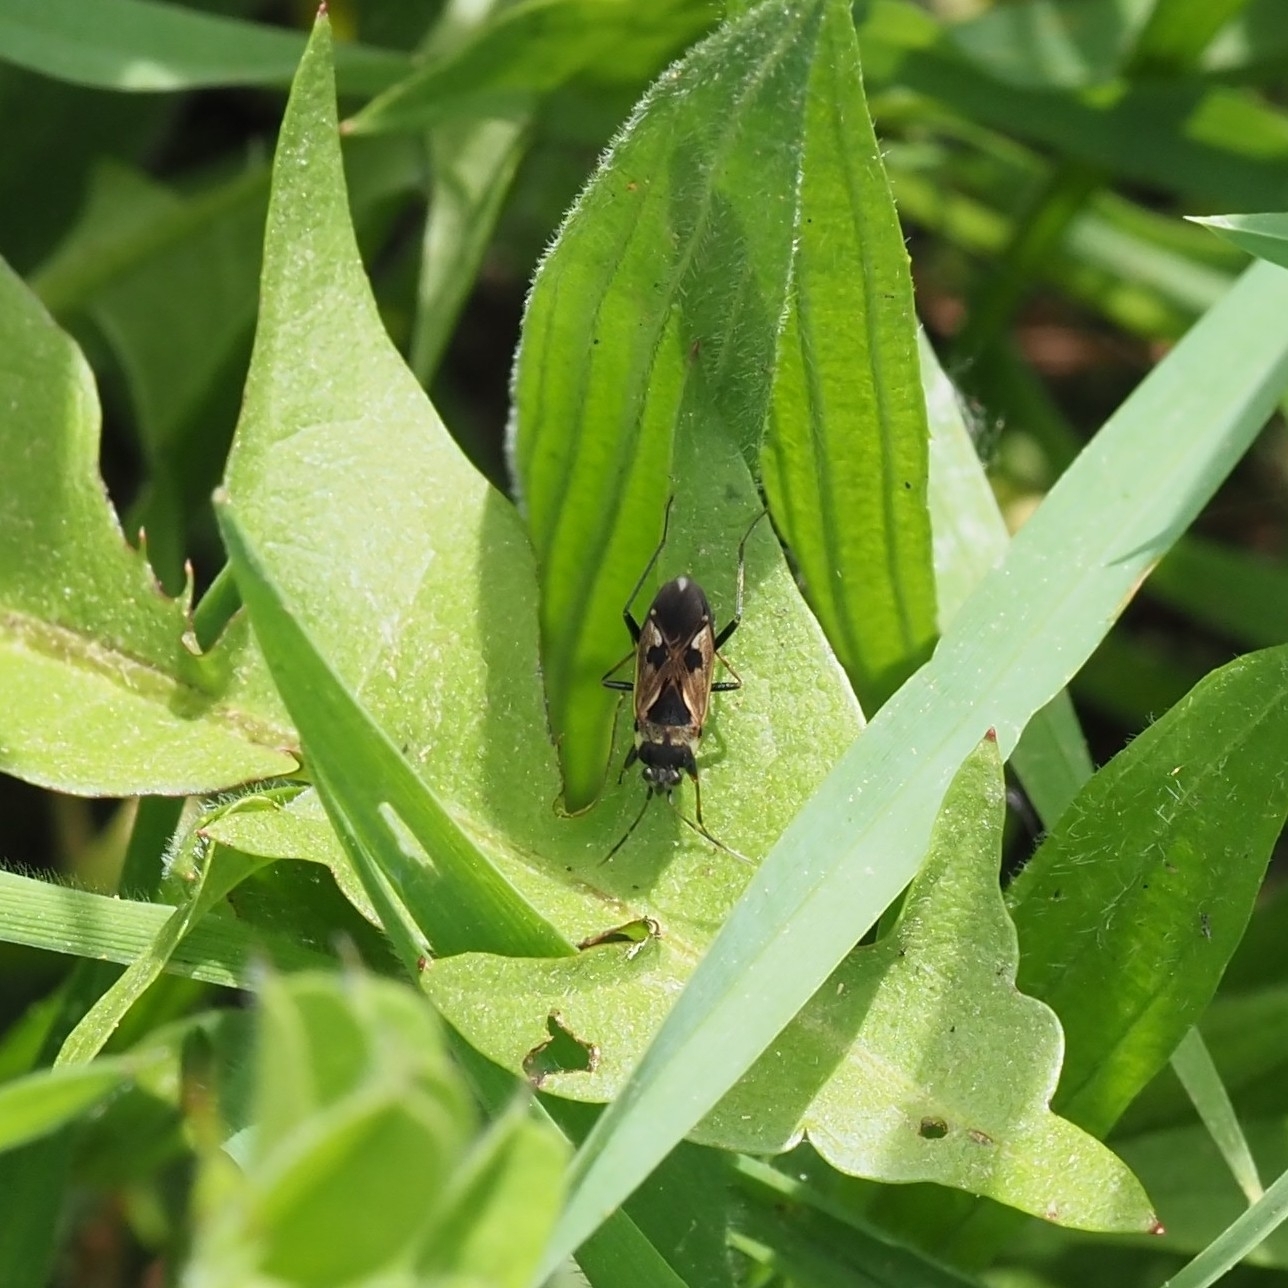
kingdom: Animalia
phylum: Arthropoda
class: Insecta
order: Hemiptera
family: Rhyparochromidae
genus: Rhyparochromus
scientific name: Rhyparochromus vulgaris
